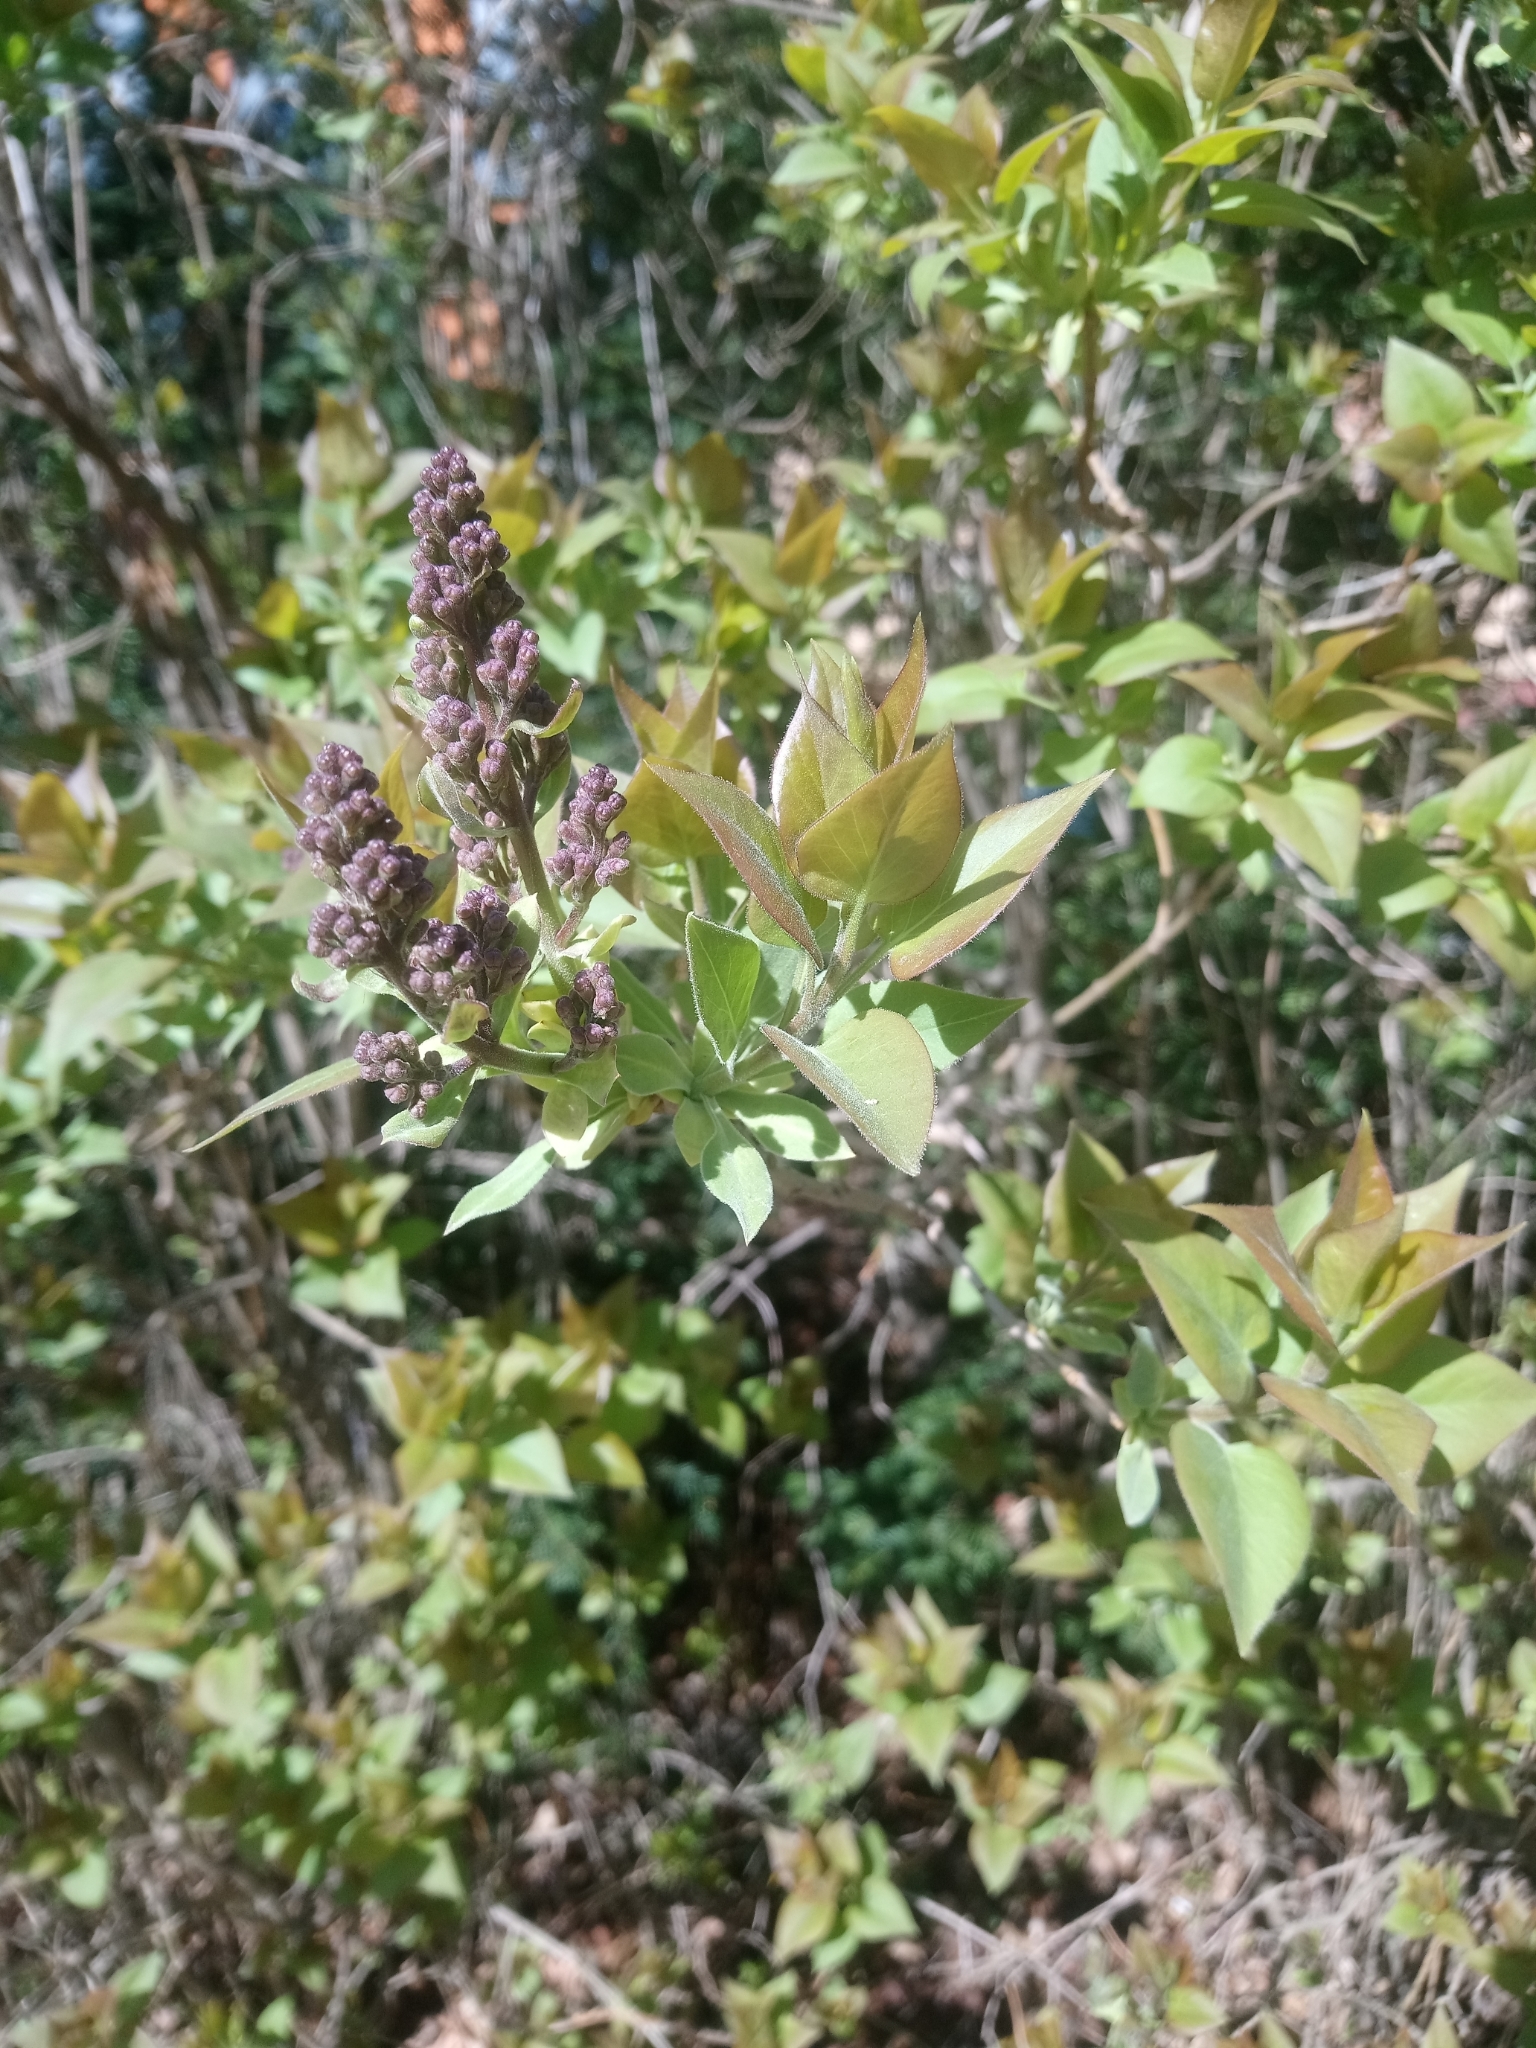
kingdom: Plantae
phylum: Tracheophyta
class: Magnoliopsida
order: Lamiales
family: Oleaceae
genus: Syringa
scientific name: Syringa vulgaris
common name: Common lilac
